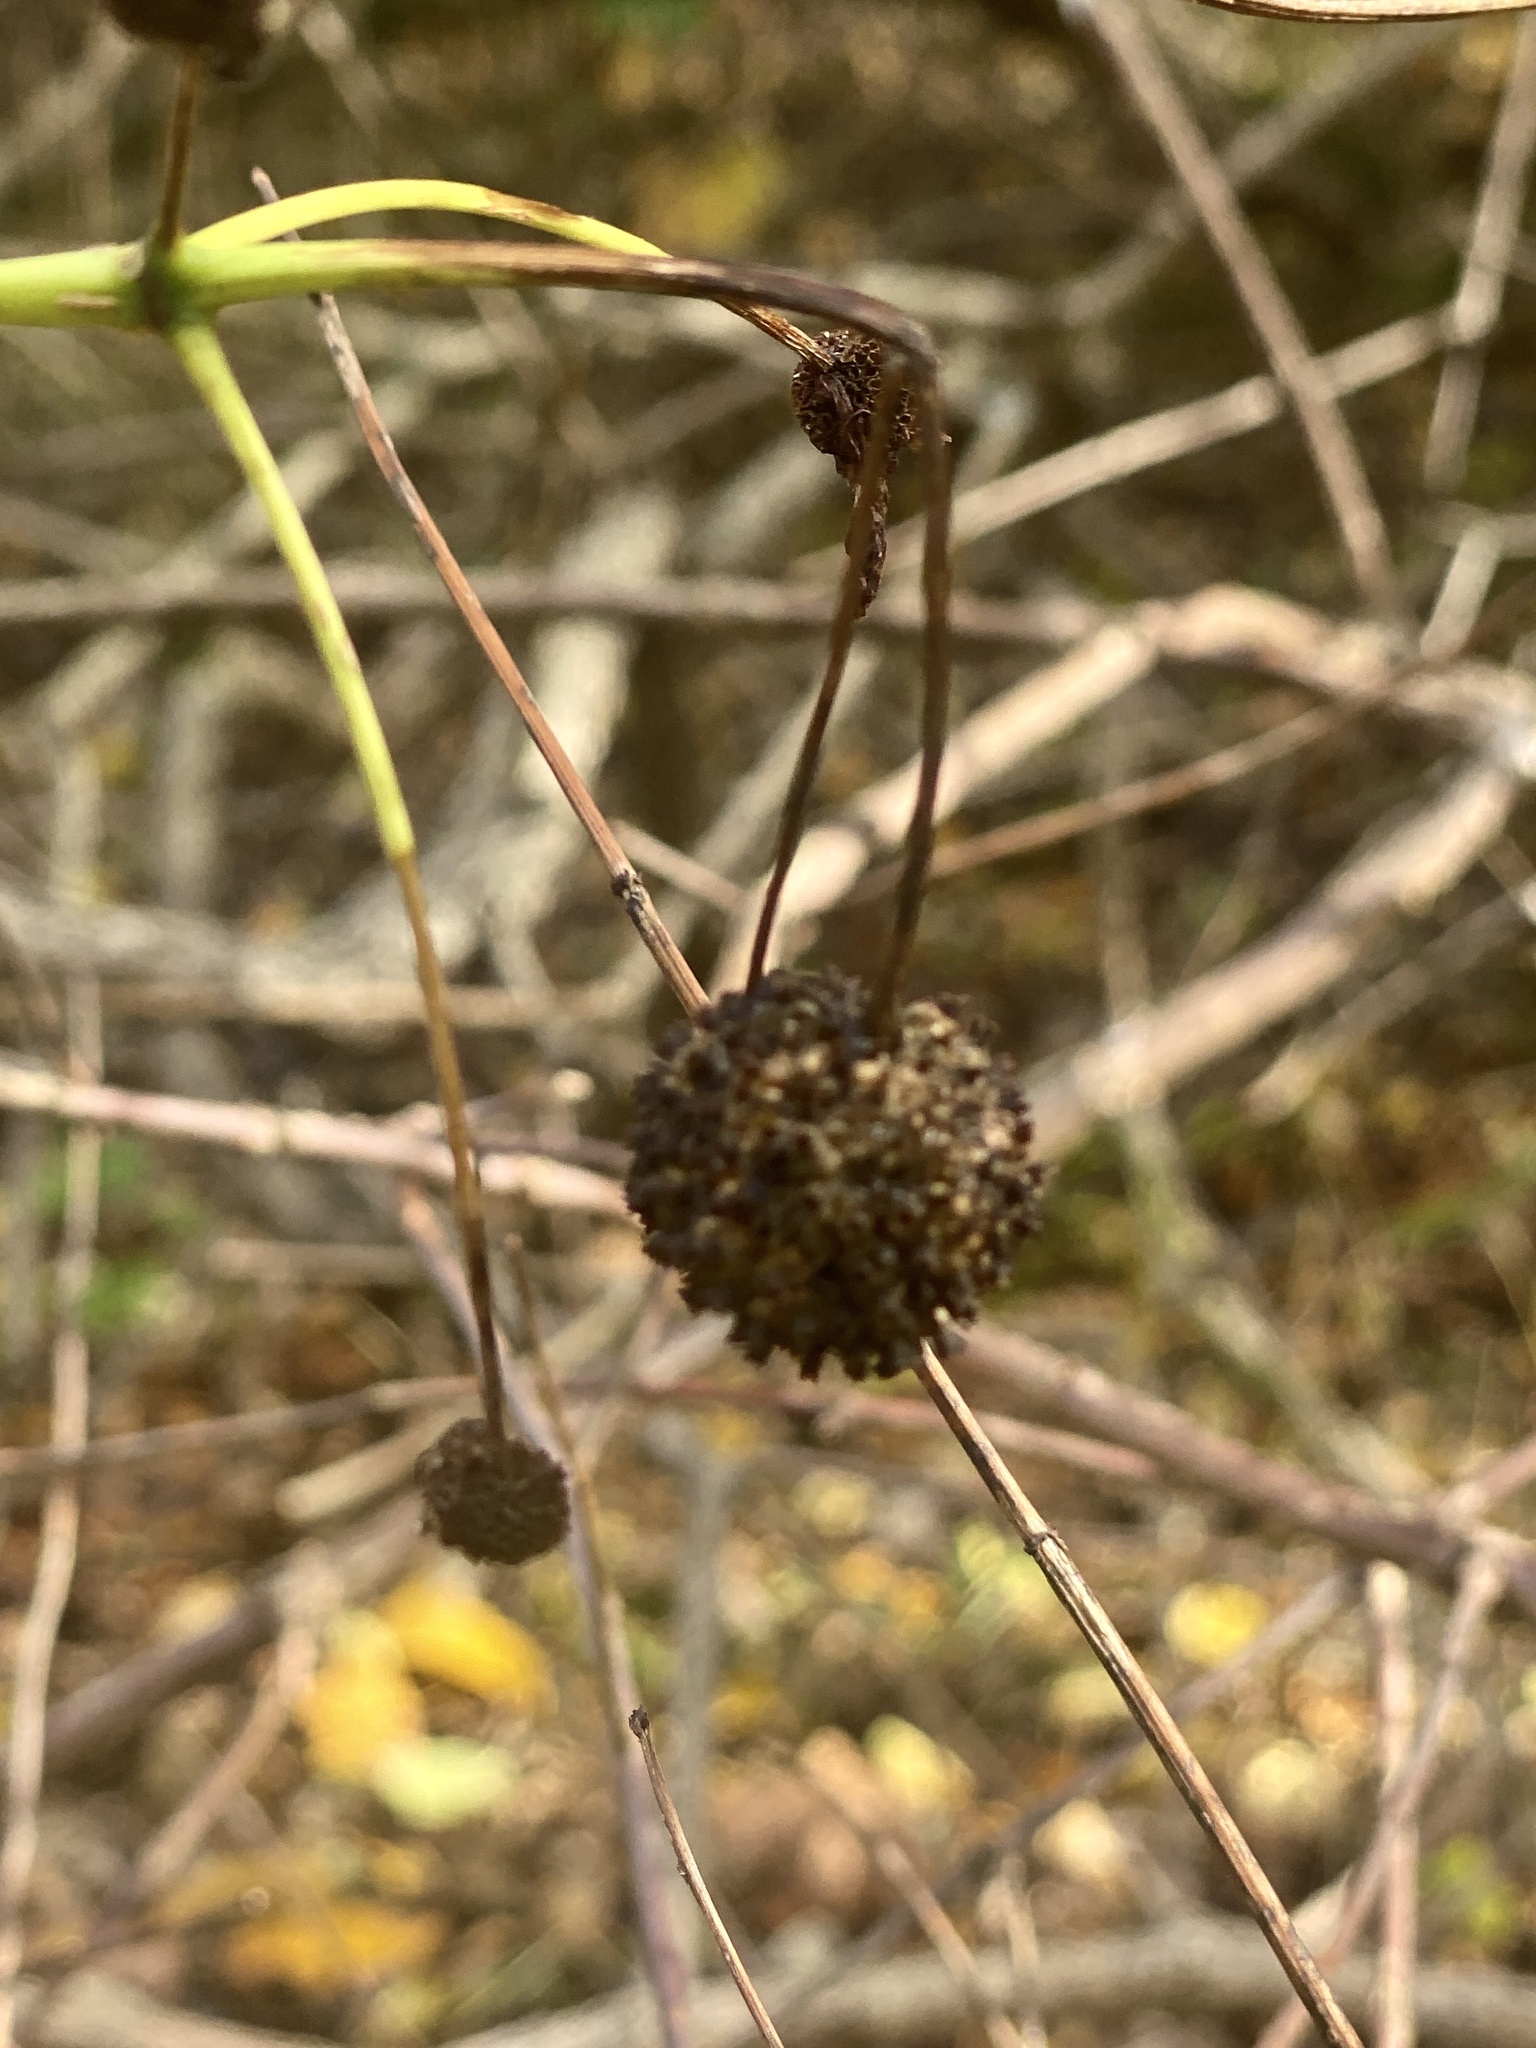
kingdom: Plantae
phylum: Tracheophyta
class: Magnoliopsida
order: Gentianales
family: Rubiaceae
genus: Cephalanthus
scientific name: Cephalanthus occidentalis
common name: Button-willow
